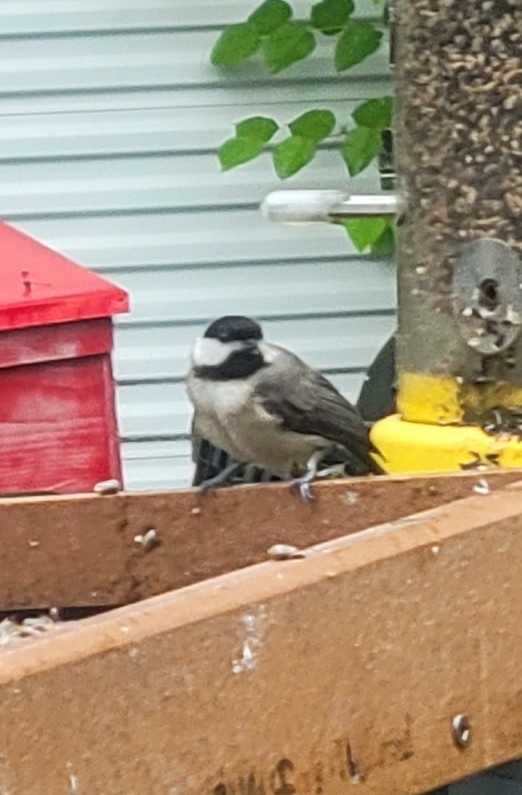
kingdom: Animalia
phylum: Chordata
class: Aves
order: Passeriformes
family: Paridae
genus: Poecile
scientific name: Poecile carolinensis
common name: Carolina chickadee
